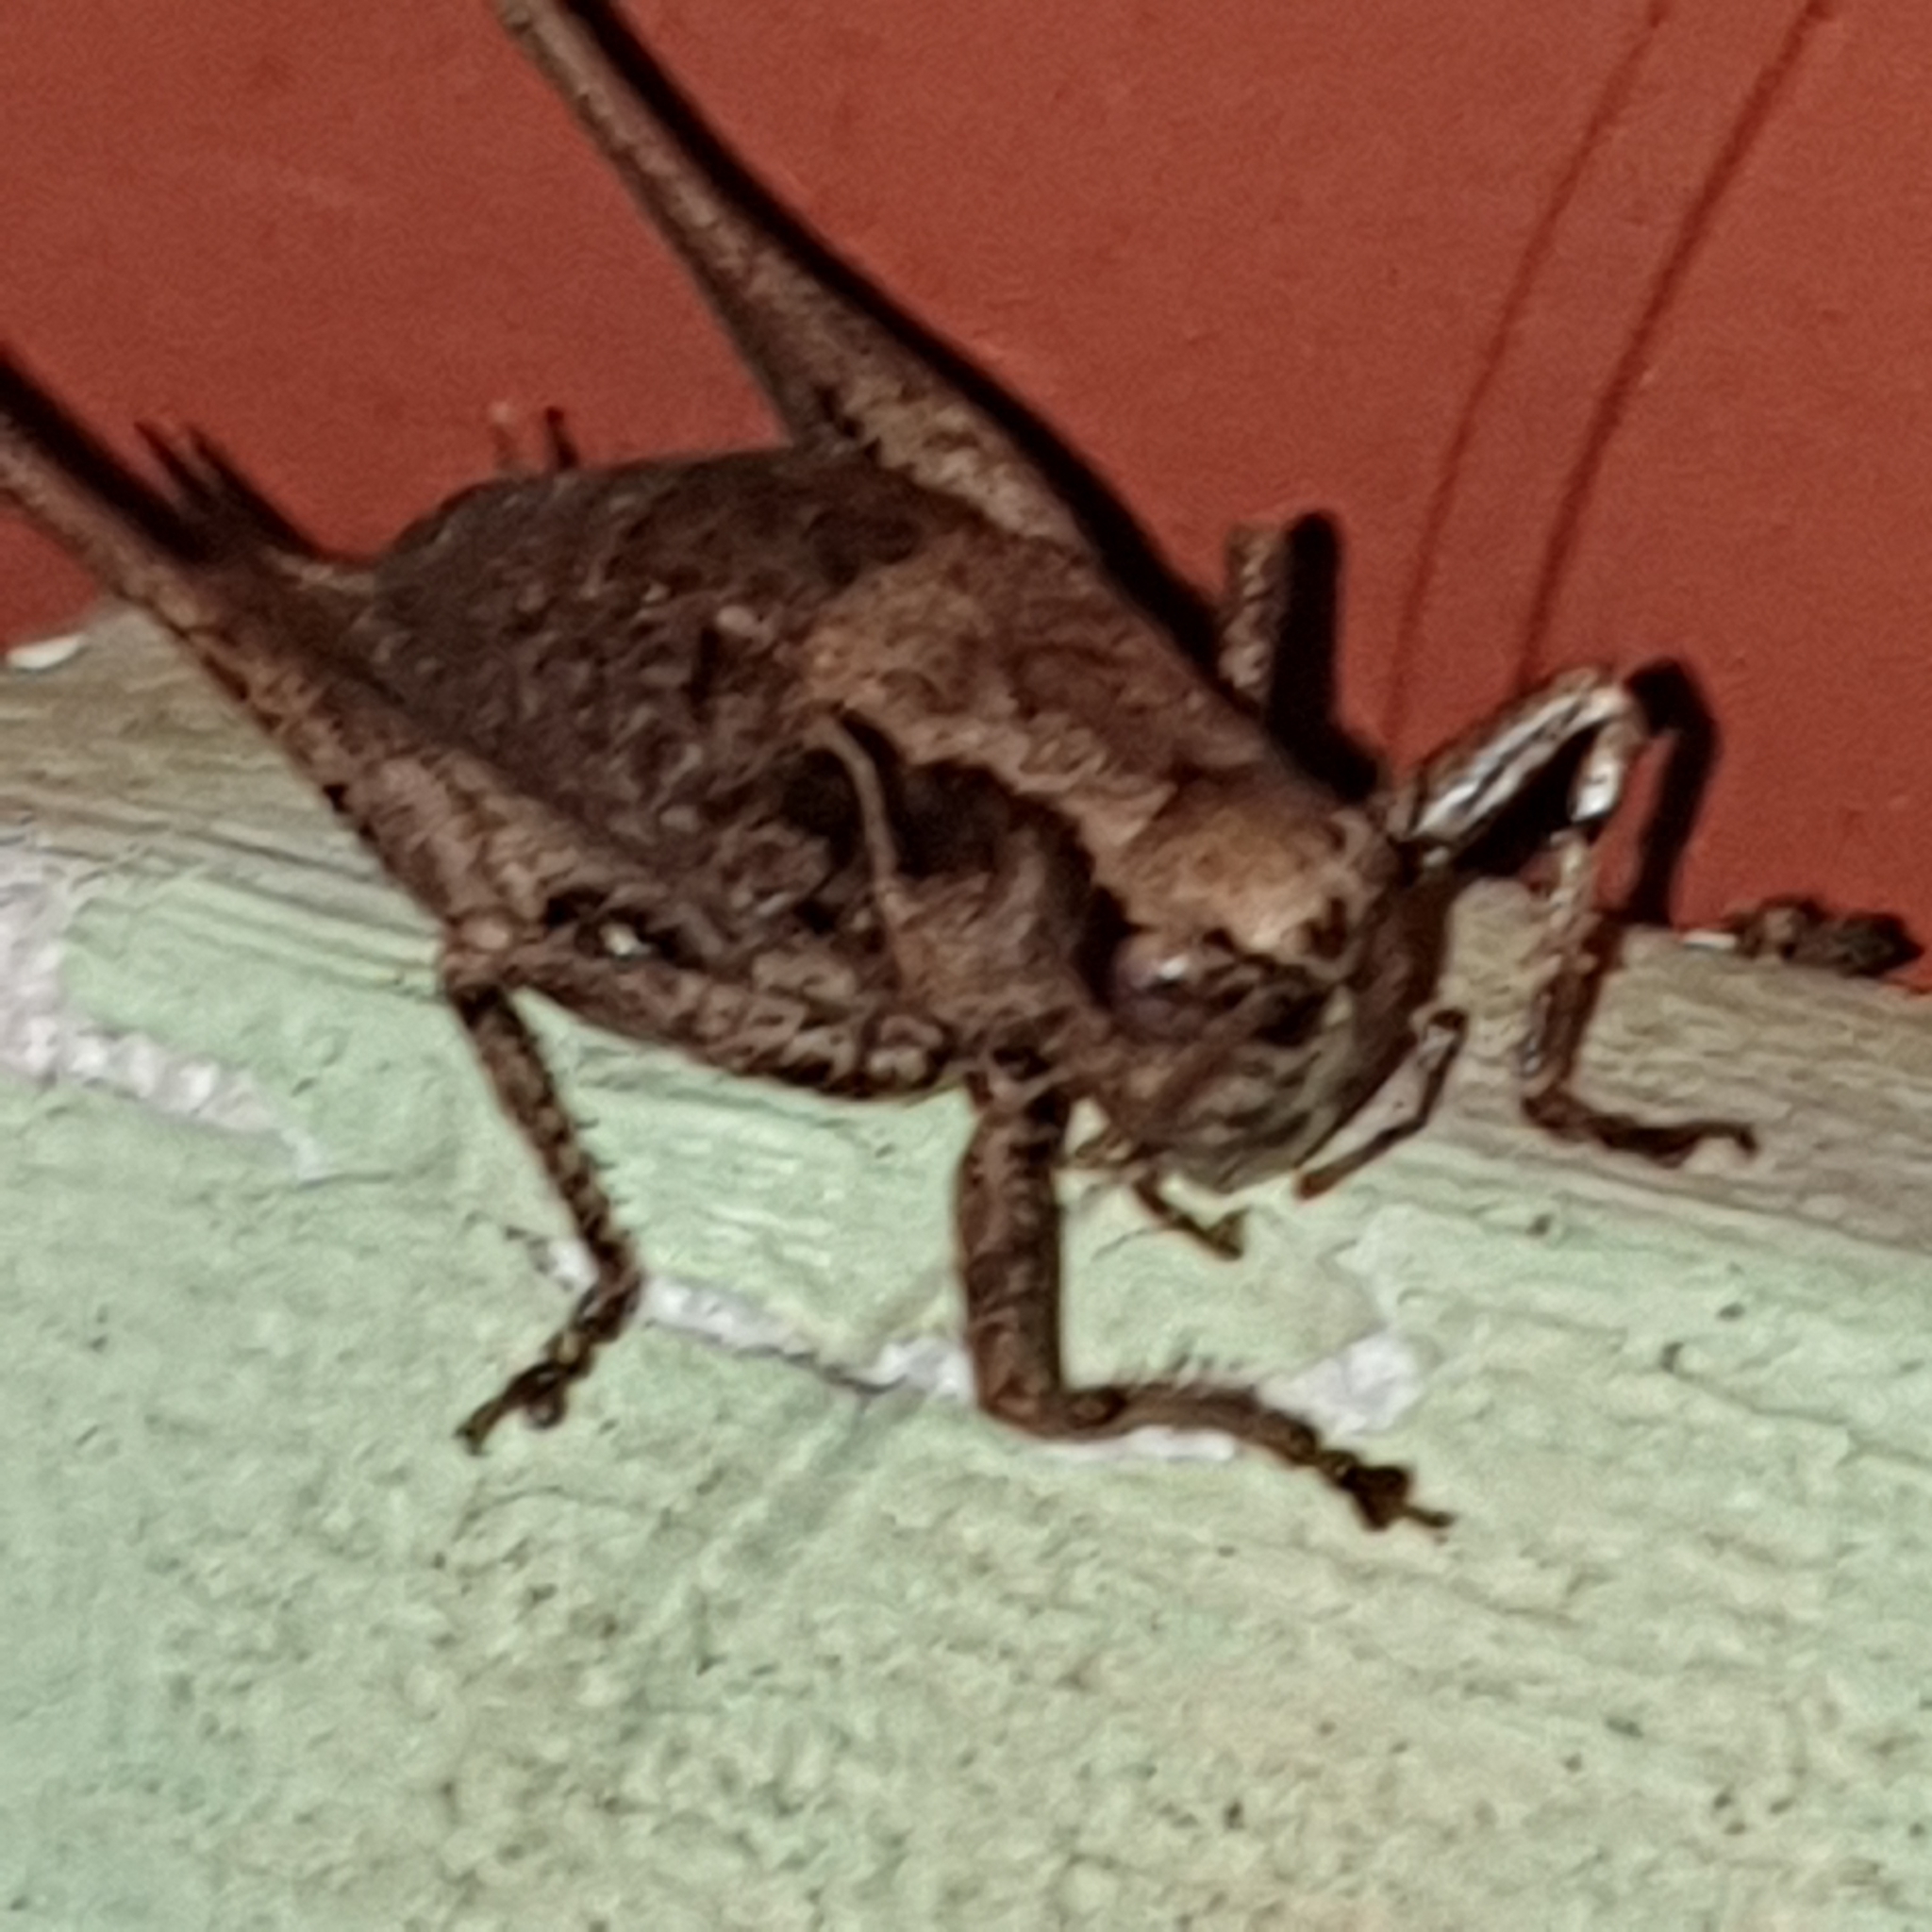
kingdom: Animalia
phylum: Arthropoda
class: Insecta
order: Orthoptera
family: Tettigoniidae
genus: Pholidoptera
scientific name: Pholidoptera griseoaptera
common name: Dark bush-cricket
